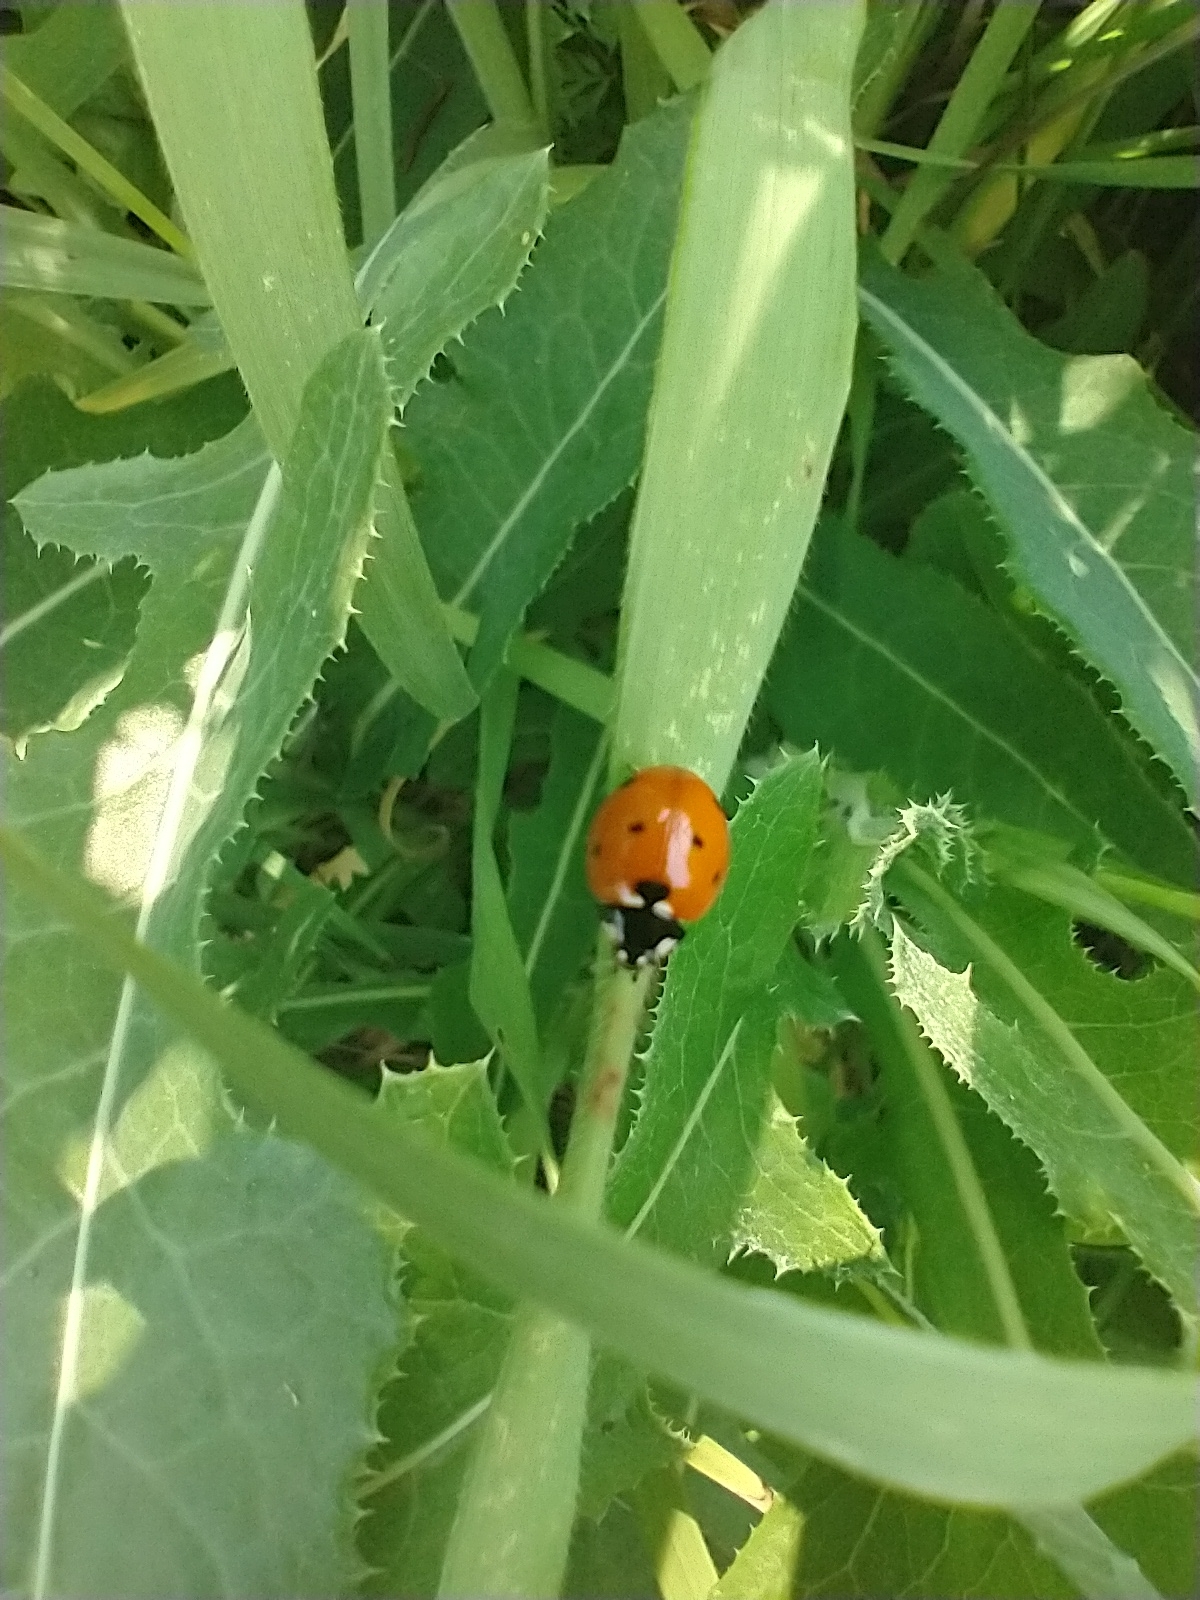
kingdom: Animalia
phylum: Arthropoda
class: Insecta
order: Coleoptera
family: Coccinellidae
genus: Coccinella
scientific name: Coccinella septempunctata
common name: Sevenspotted lady beetle
